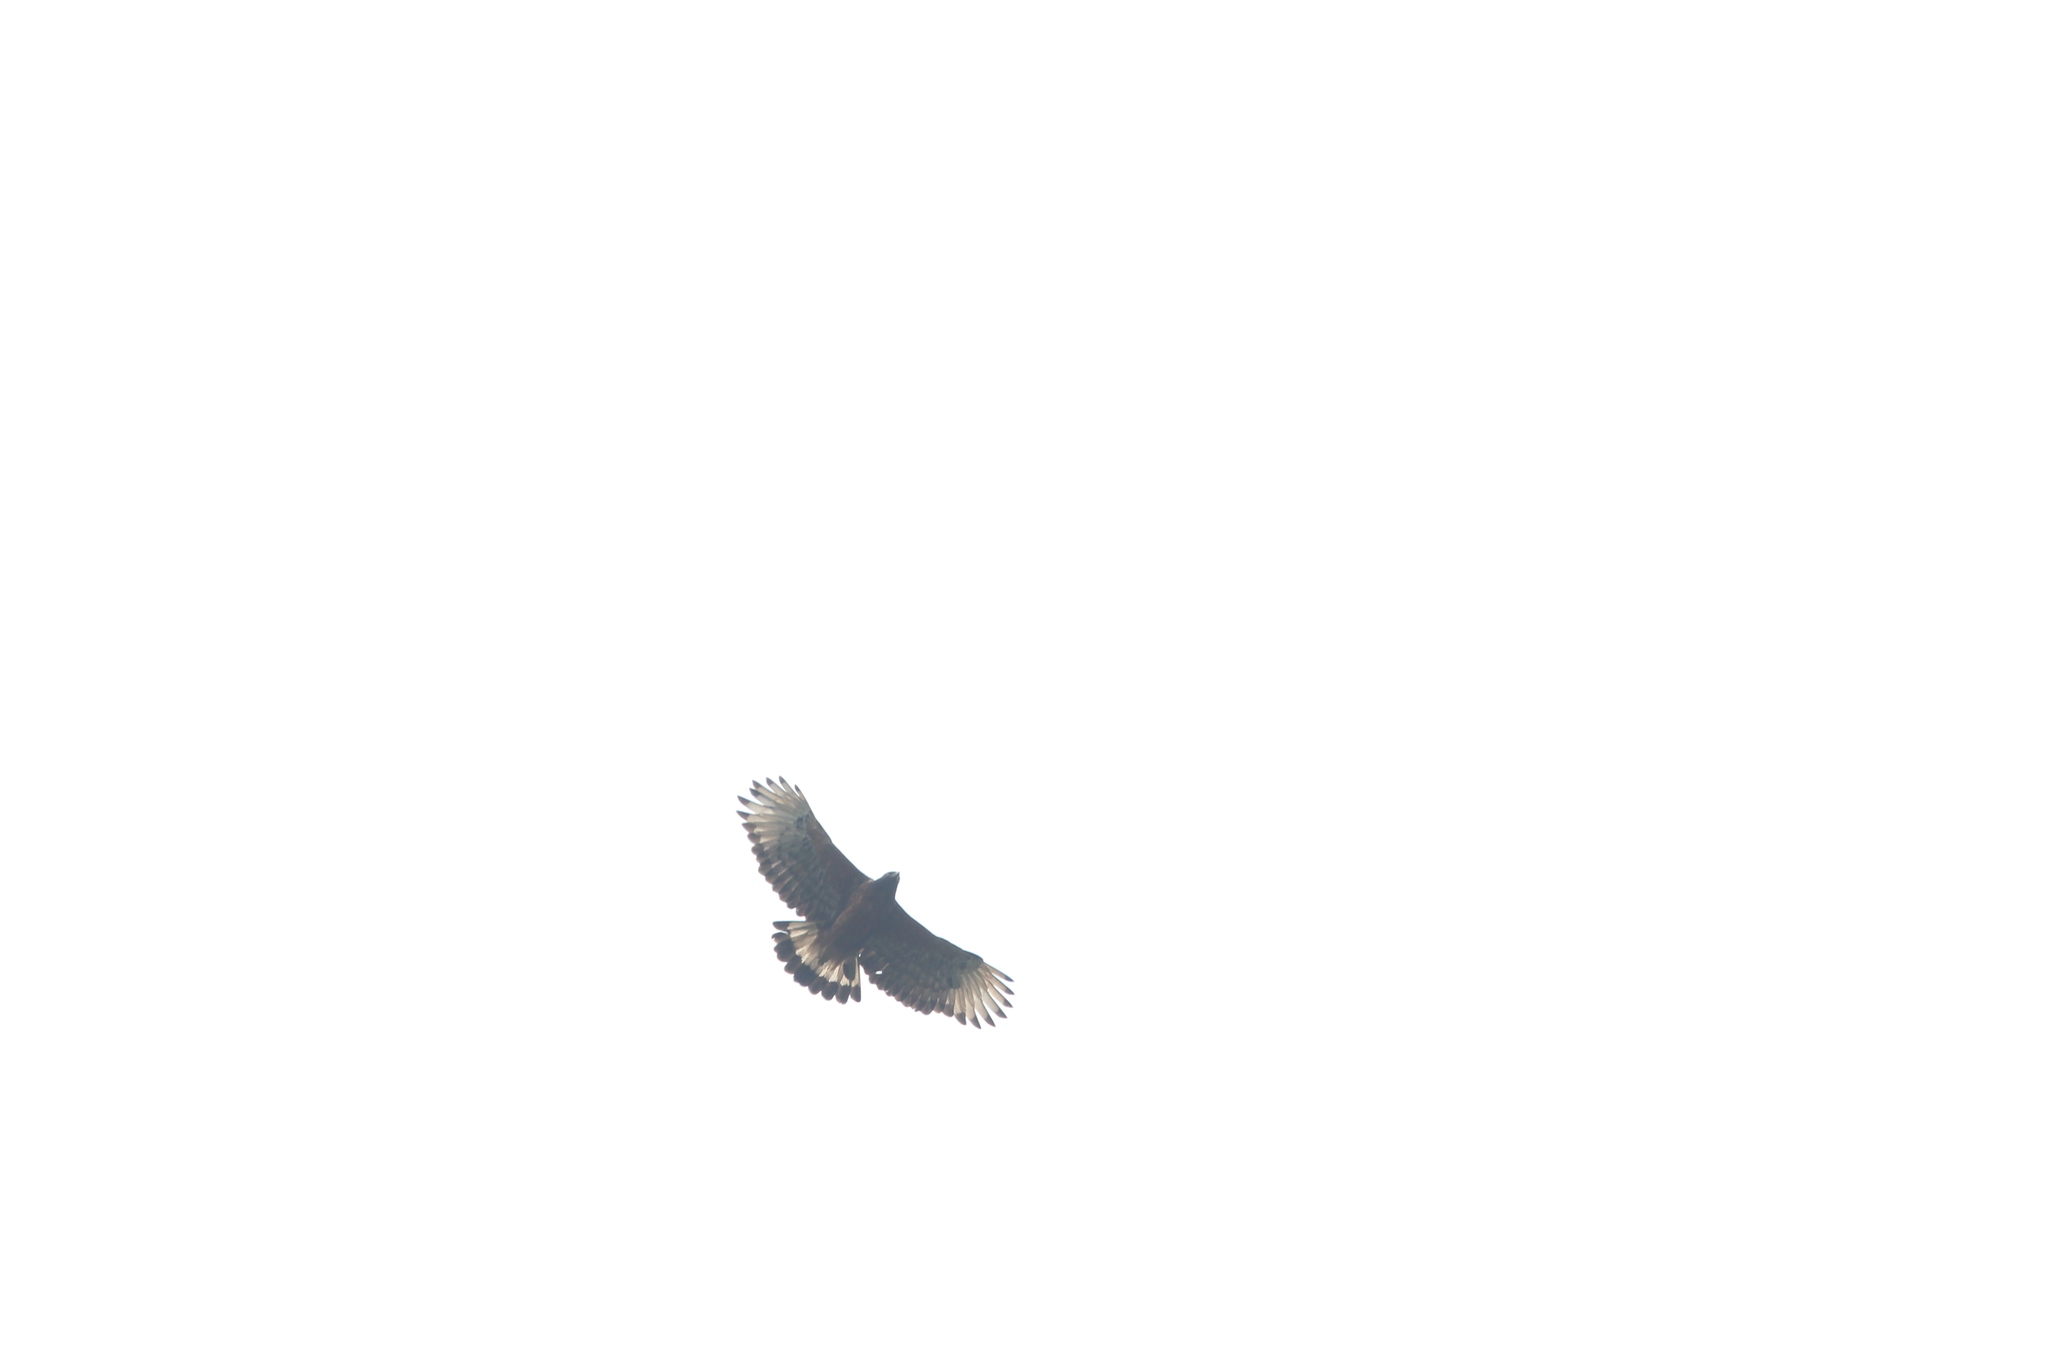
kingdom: Animalia
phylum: Chordata
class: Aves
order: Accipitriformes
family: Accipitridae
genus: Spizaetus
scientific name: Spizaetus isidori
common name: Black-and-chestnut eagle
